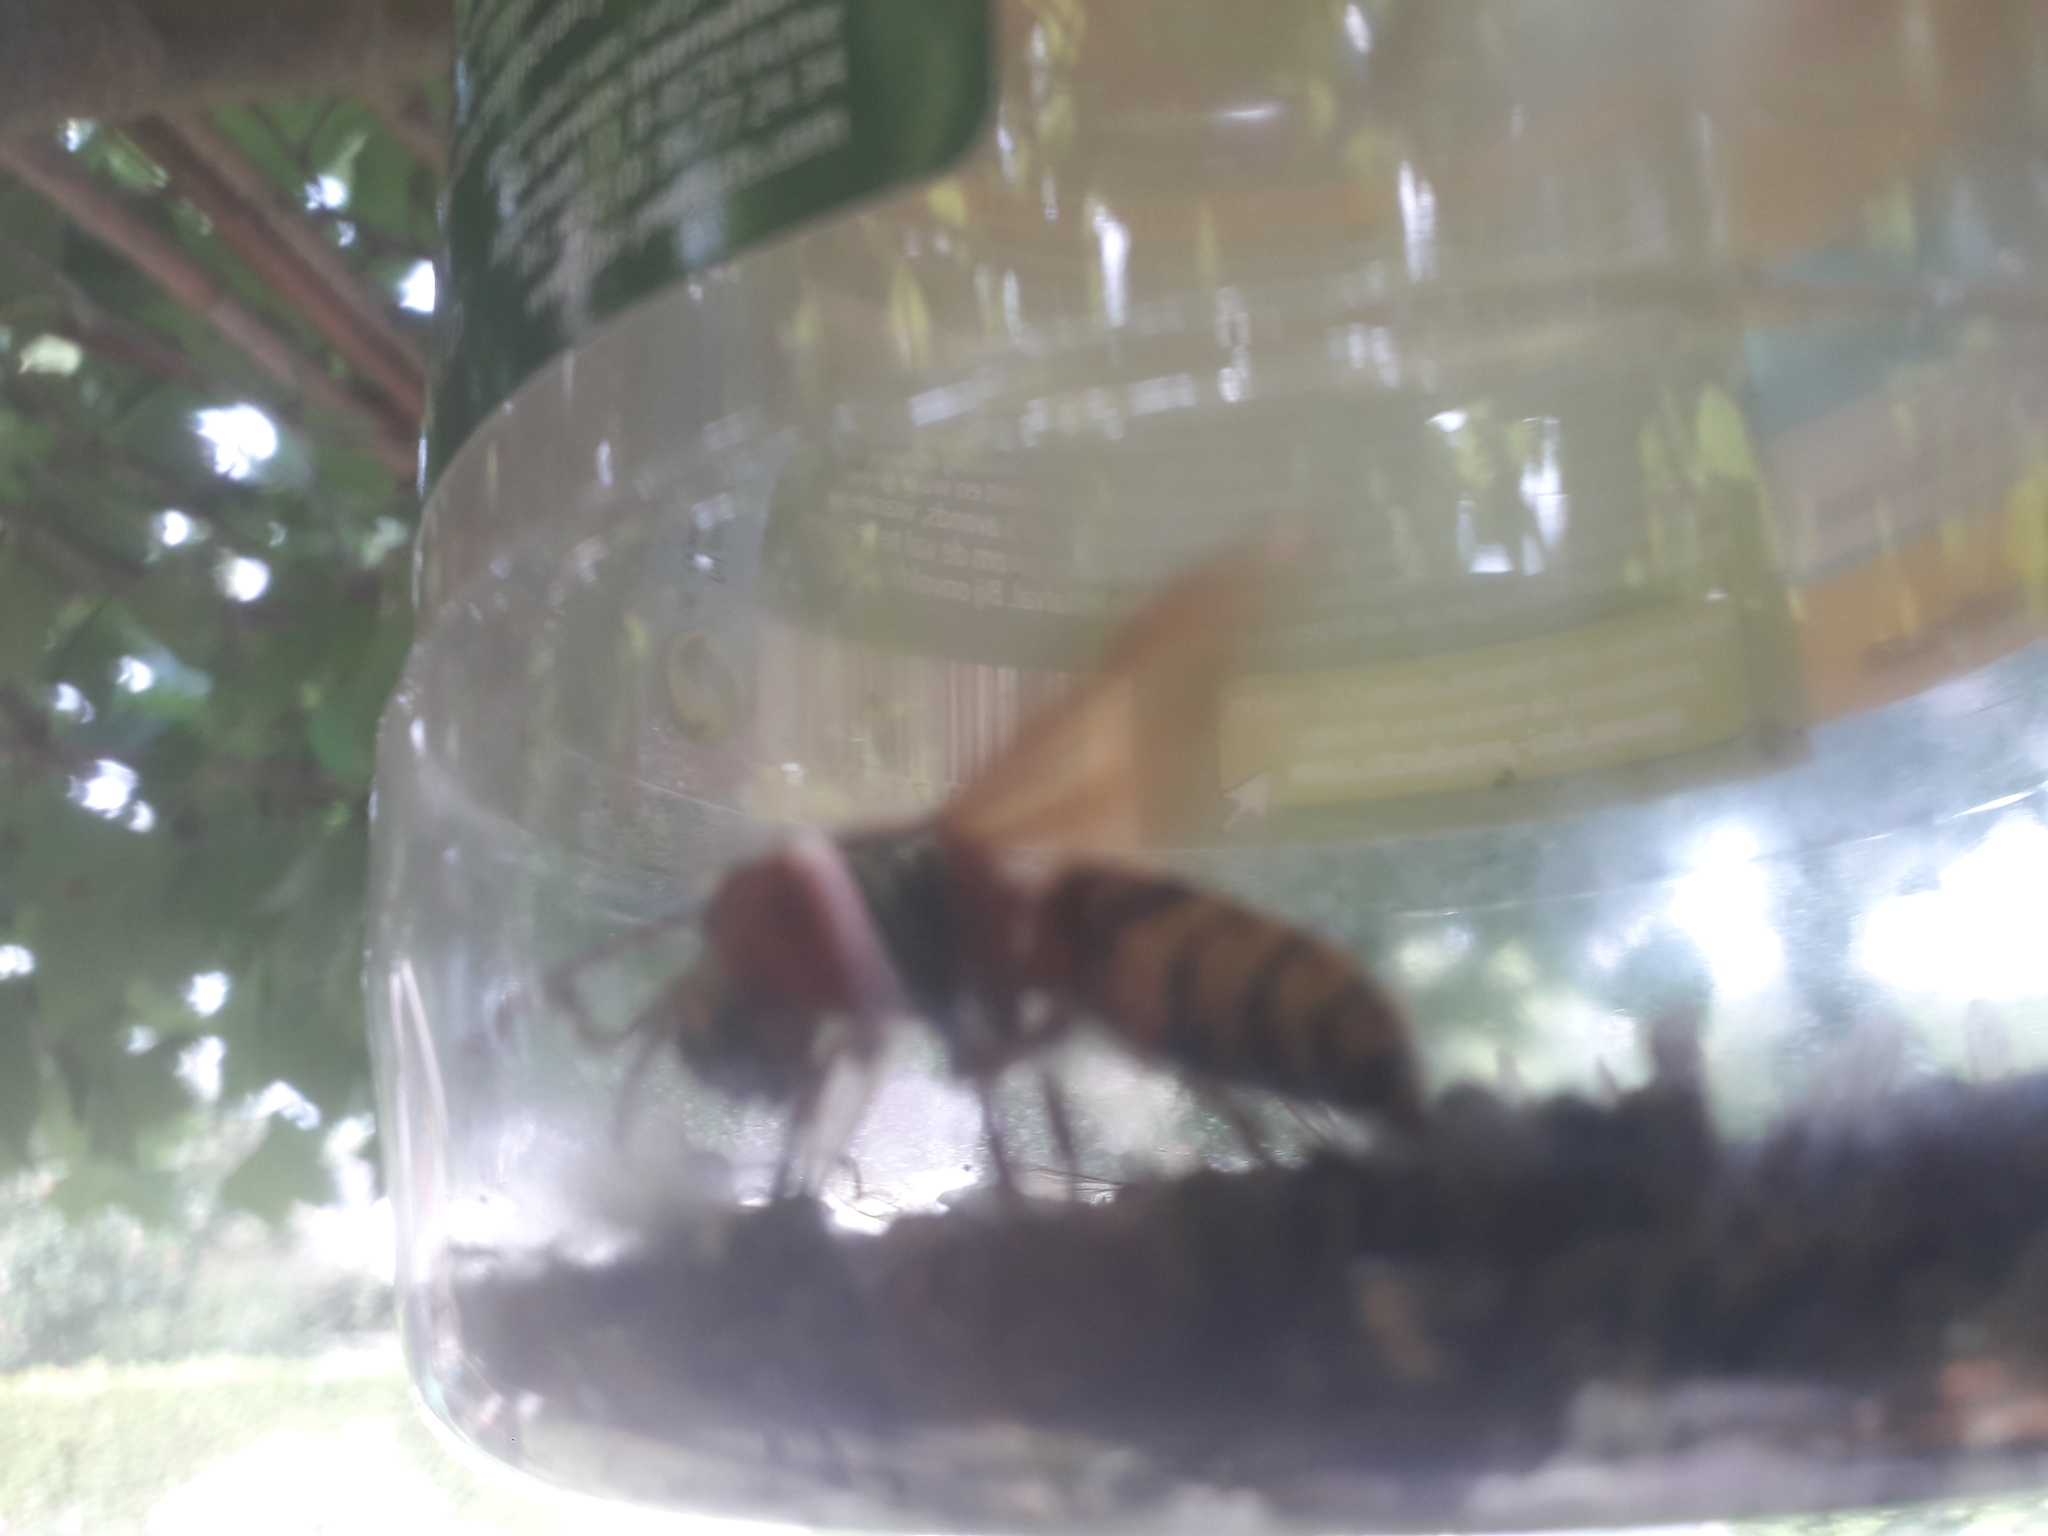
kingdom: Animalia
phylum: Arthropoda
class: Insecta
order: Hymenoptera
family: Vespidae
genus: Vespa
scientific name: Vespa crabro
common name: Hornet
